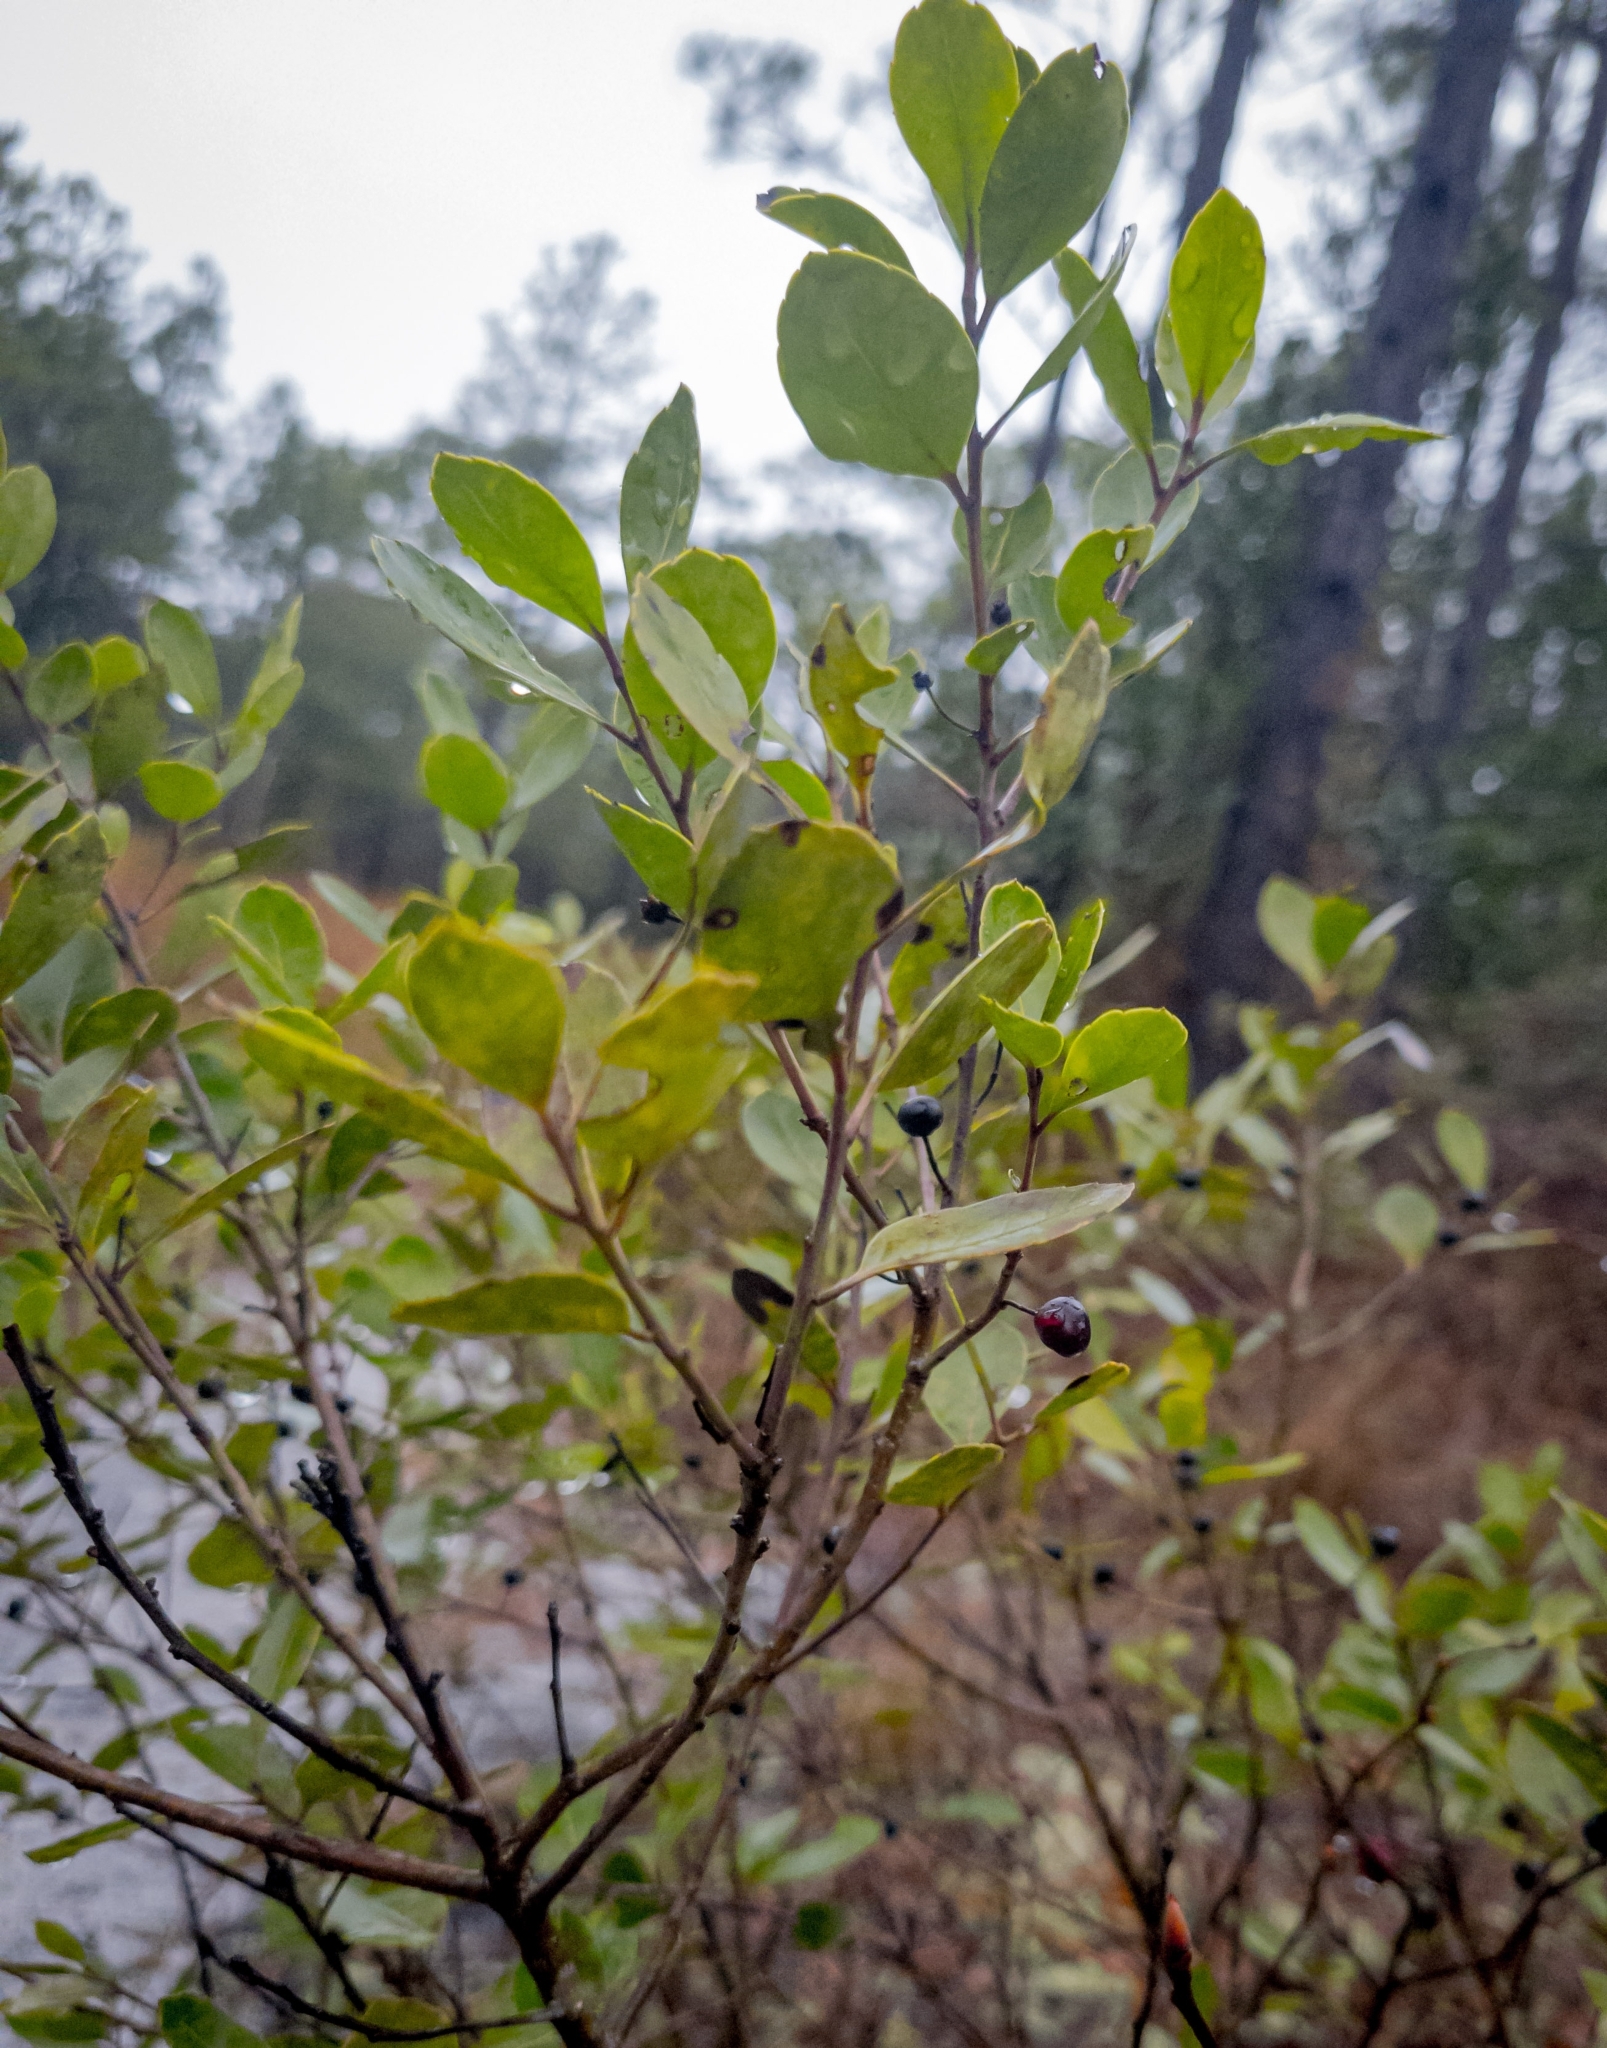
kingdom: Plantae
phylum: Tracheophyta
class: Magnoliopsida
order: Aquifoliales
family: Aquifoliaceae
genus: Ilex
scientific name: Ilex glabra
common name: Bitter gallberry
